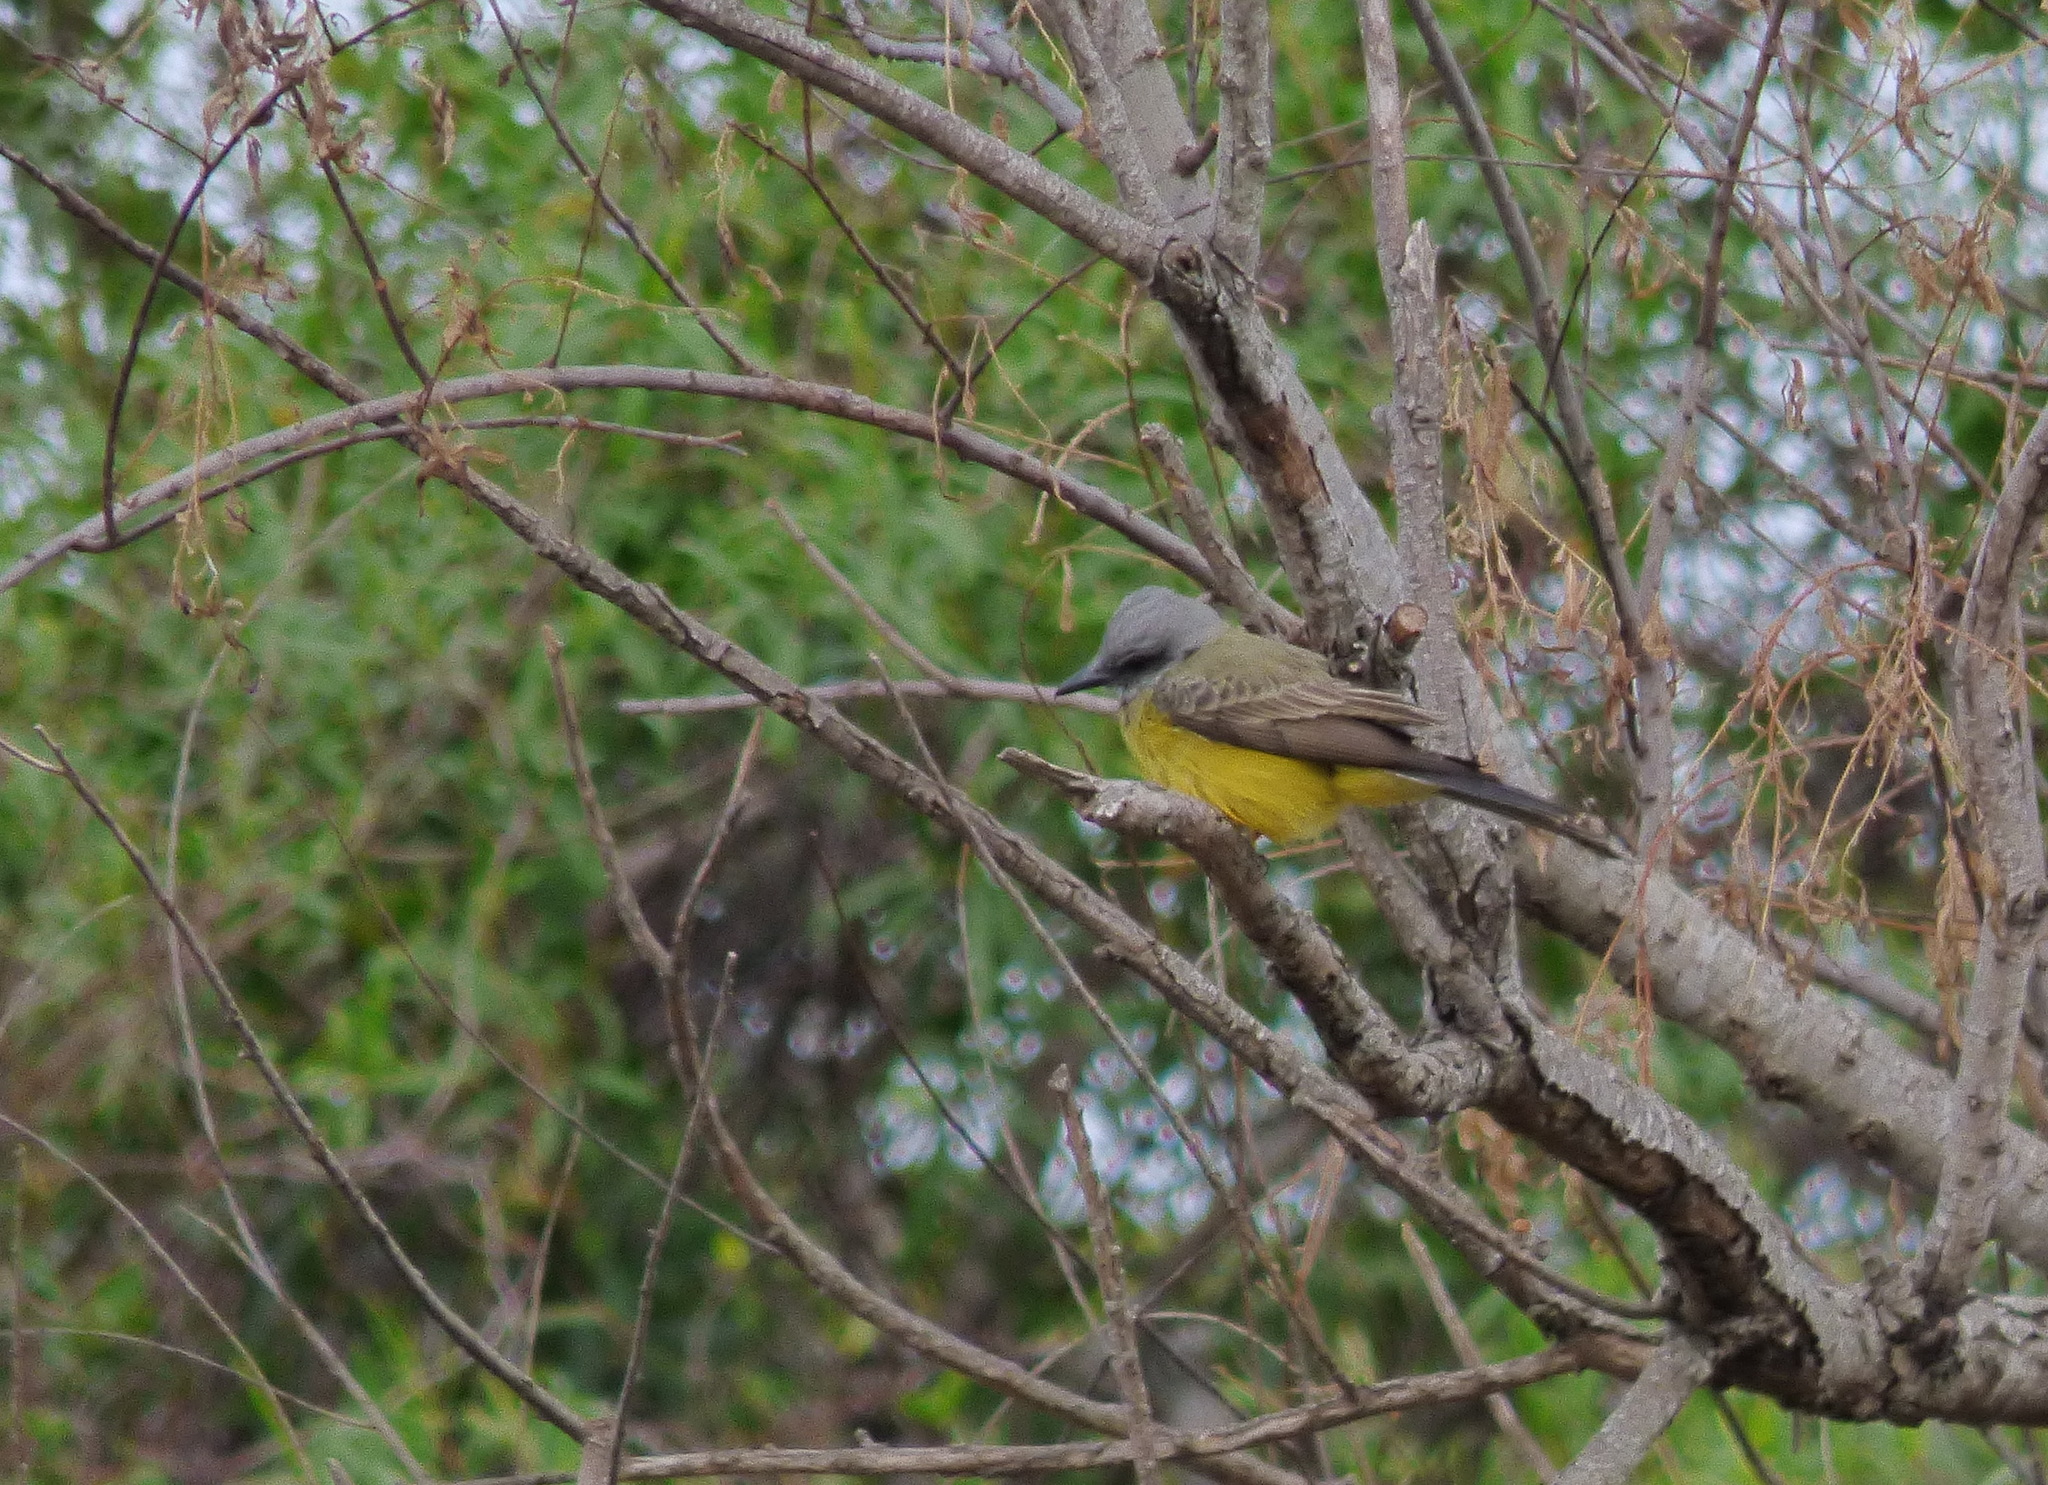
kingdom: Animalia
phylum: Chordata
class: Aves
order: Passeriformes
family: Tyrannidae
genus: Tyrannus
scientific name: Tyrannus melancholicus
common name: Tropical kingbird
